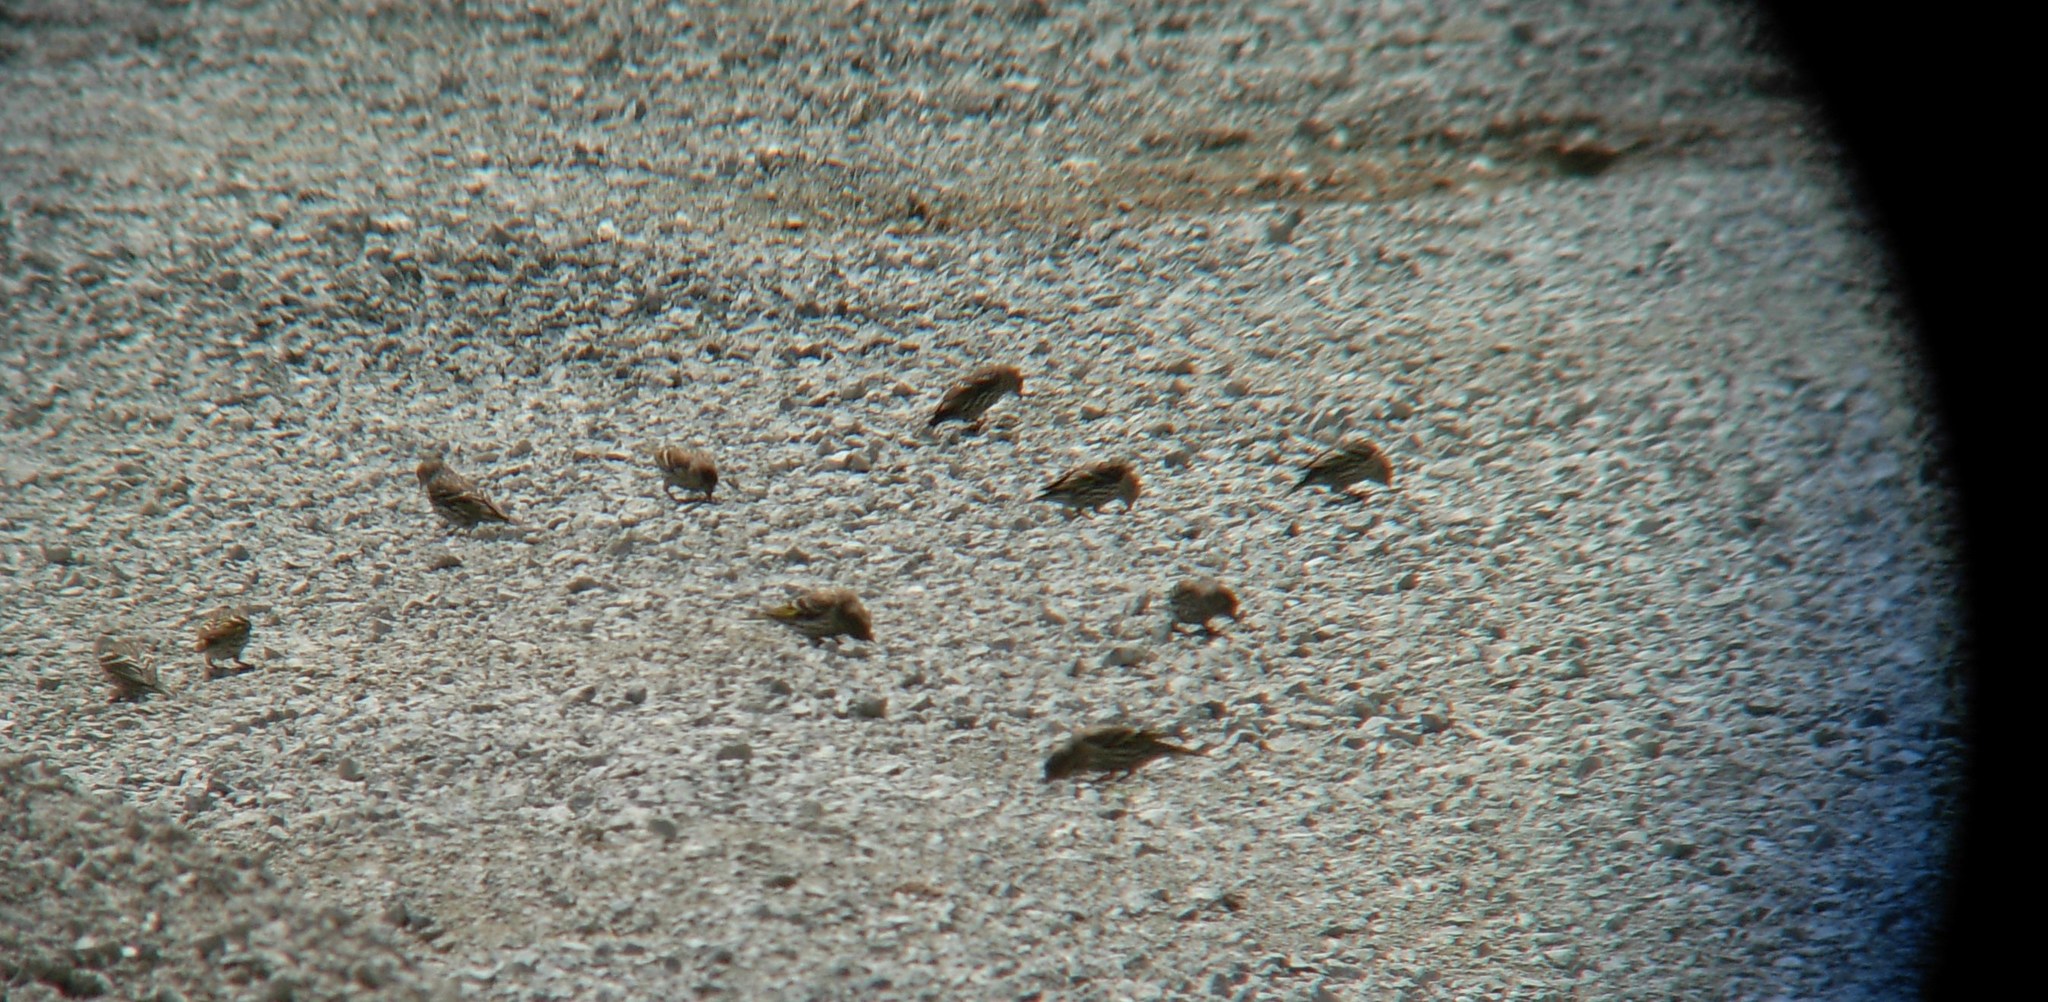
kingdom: Animalia
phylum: Chordata
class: Aves
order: Passeriformes
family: Fringillidae
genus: Spinus
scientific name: Spinus pinus
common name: Pine siskin
